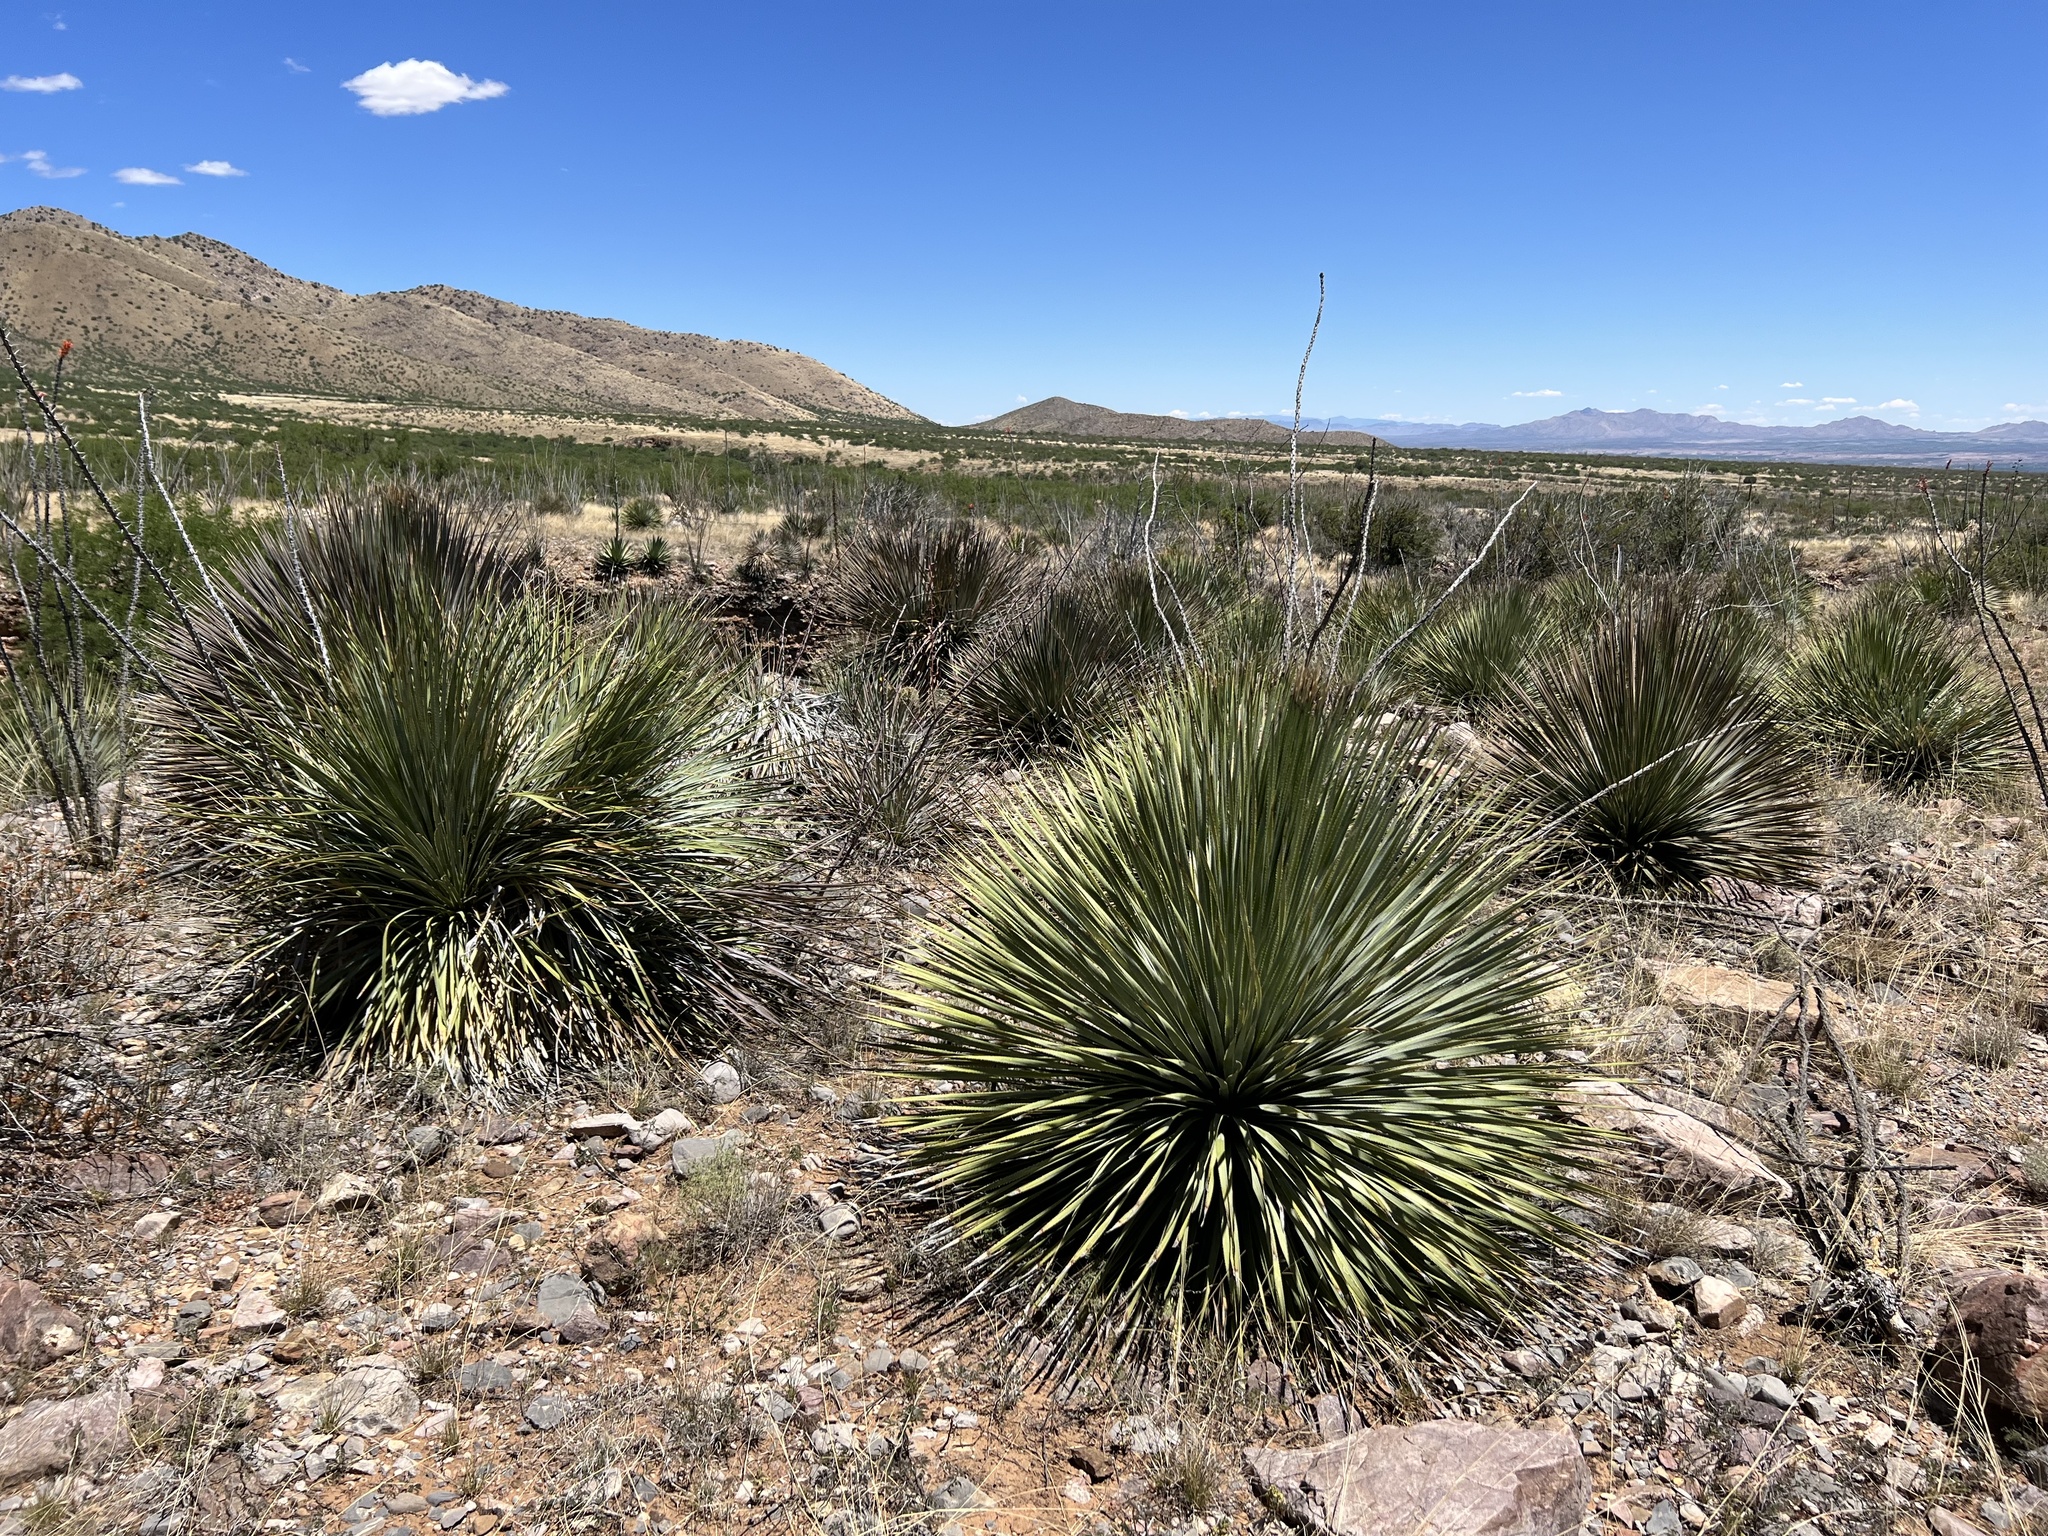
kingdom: Plantae
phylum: Tracheophyta
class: Liliopsida
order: Asparagales
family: Asparagaceae
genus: Dasylirion
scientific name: Dasylirion wheeleri
